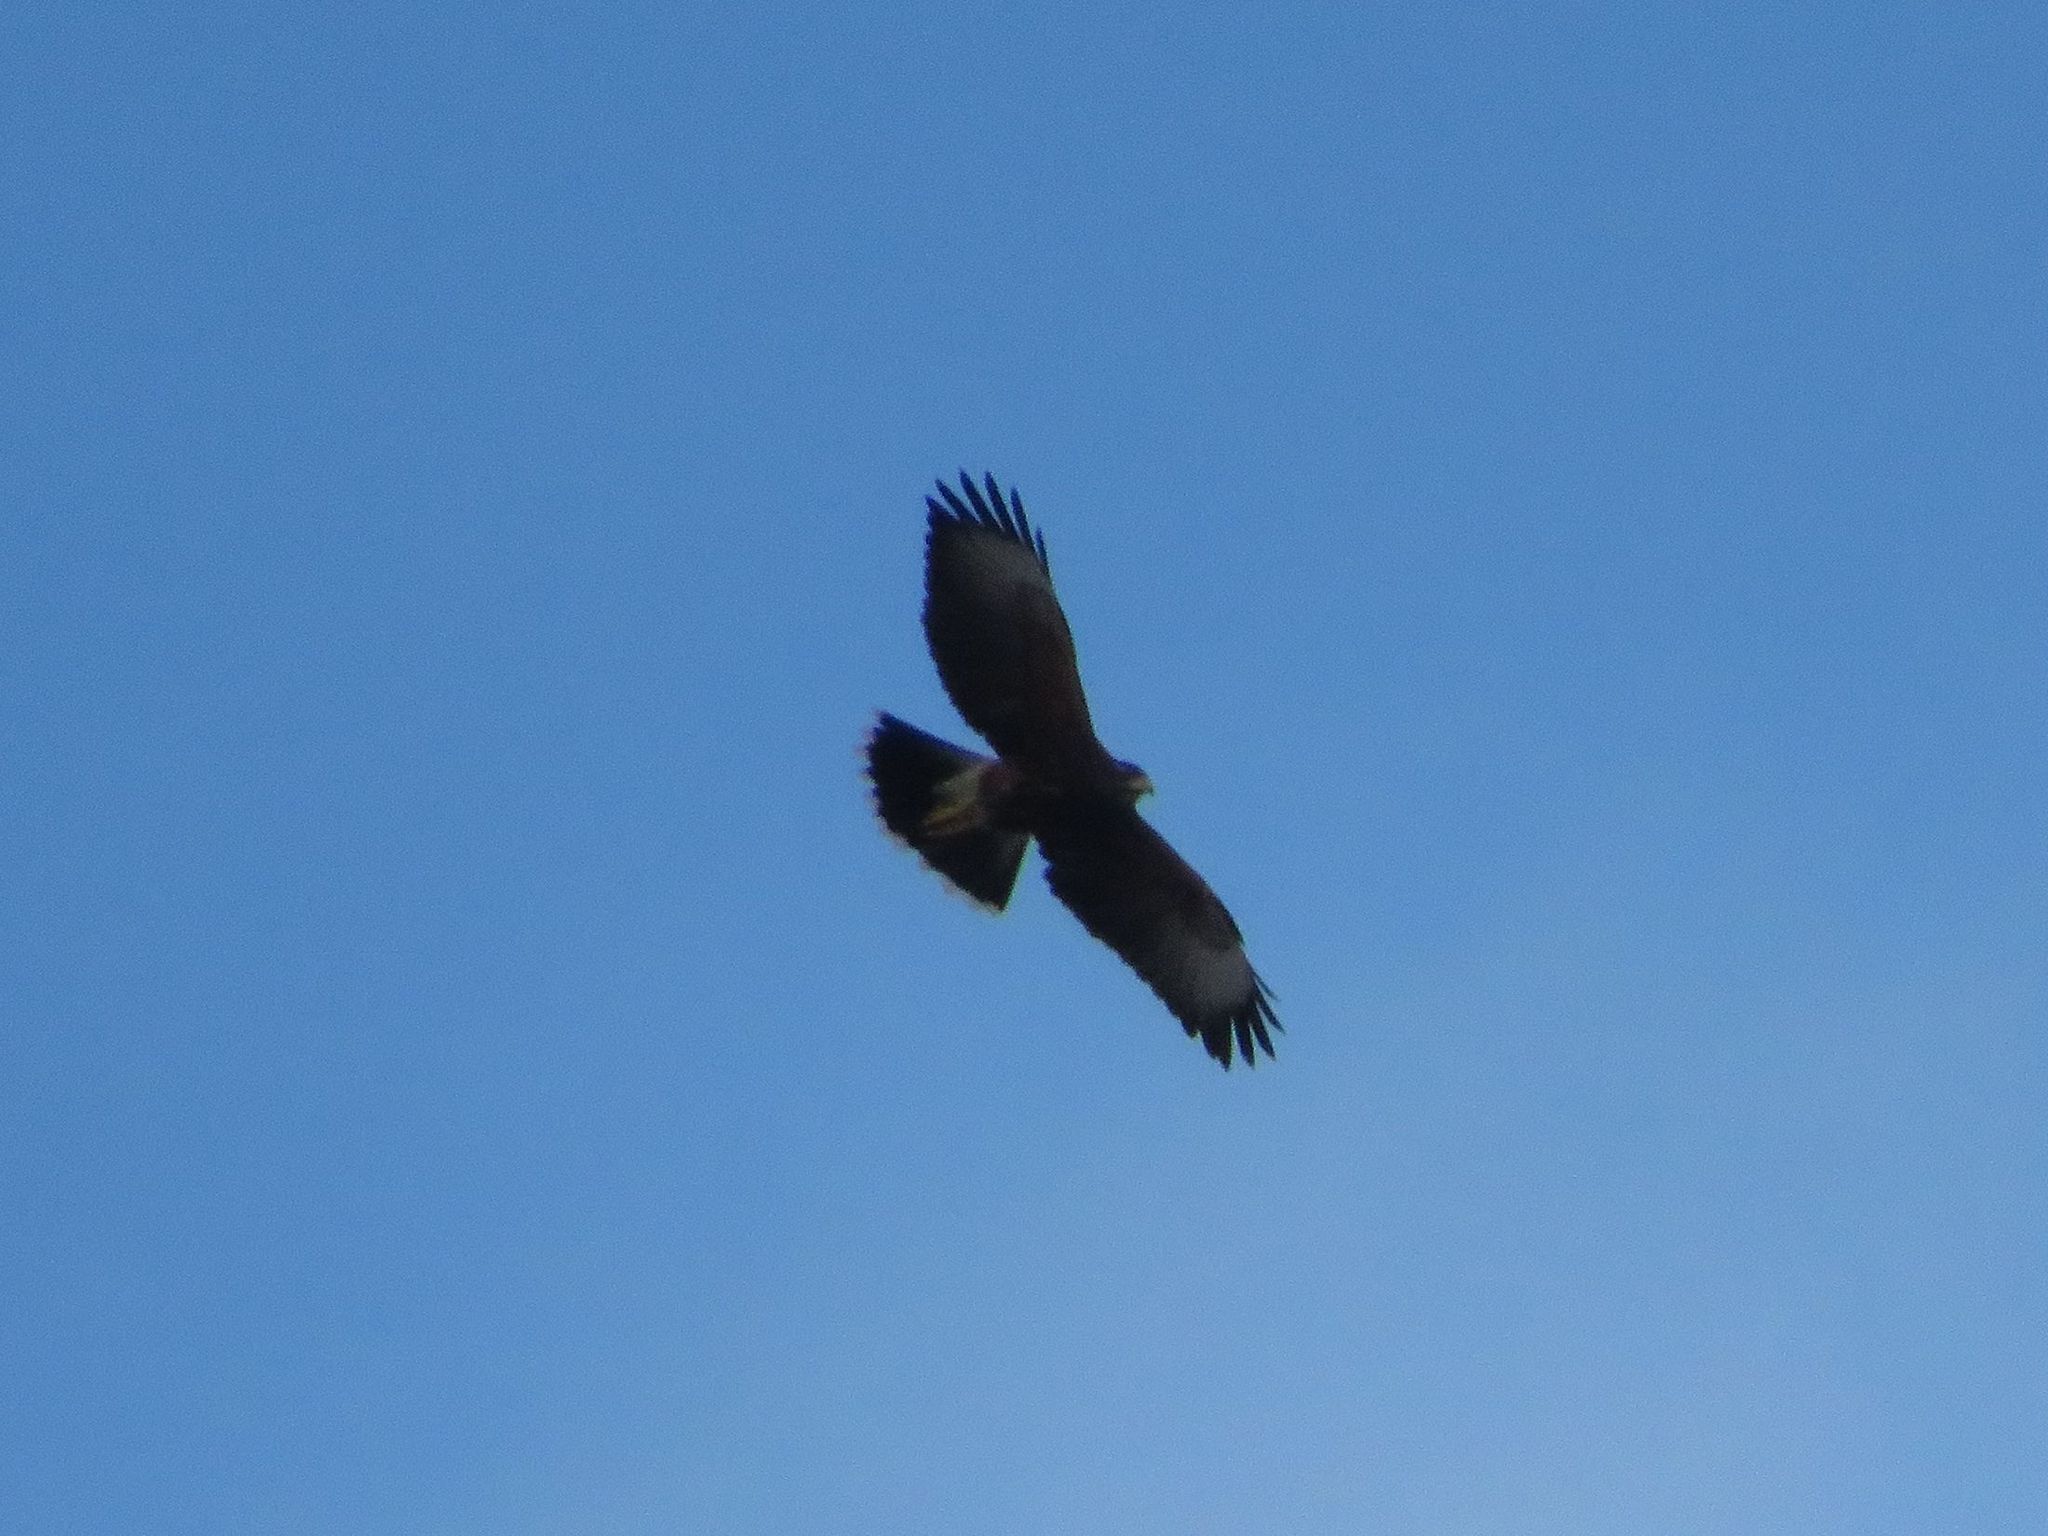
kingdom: Animalia
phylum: Chordata
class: Aves
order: Accipitriformes
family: Accipitridae
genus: Parabuteo
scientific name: Parabuteo unicinctus
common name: Harris's hawk
